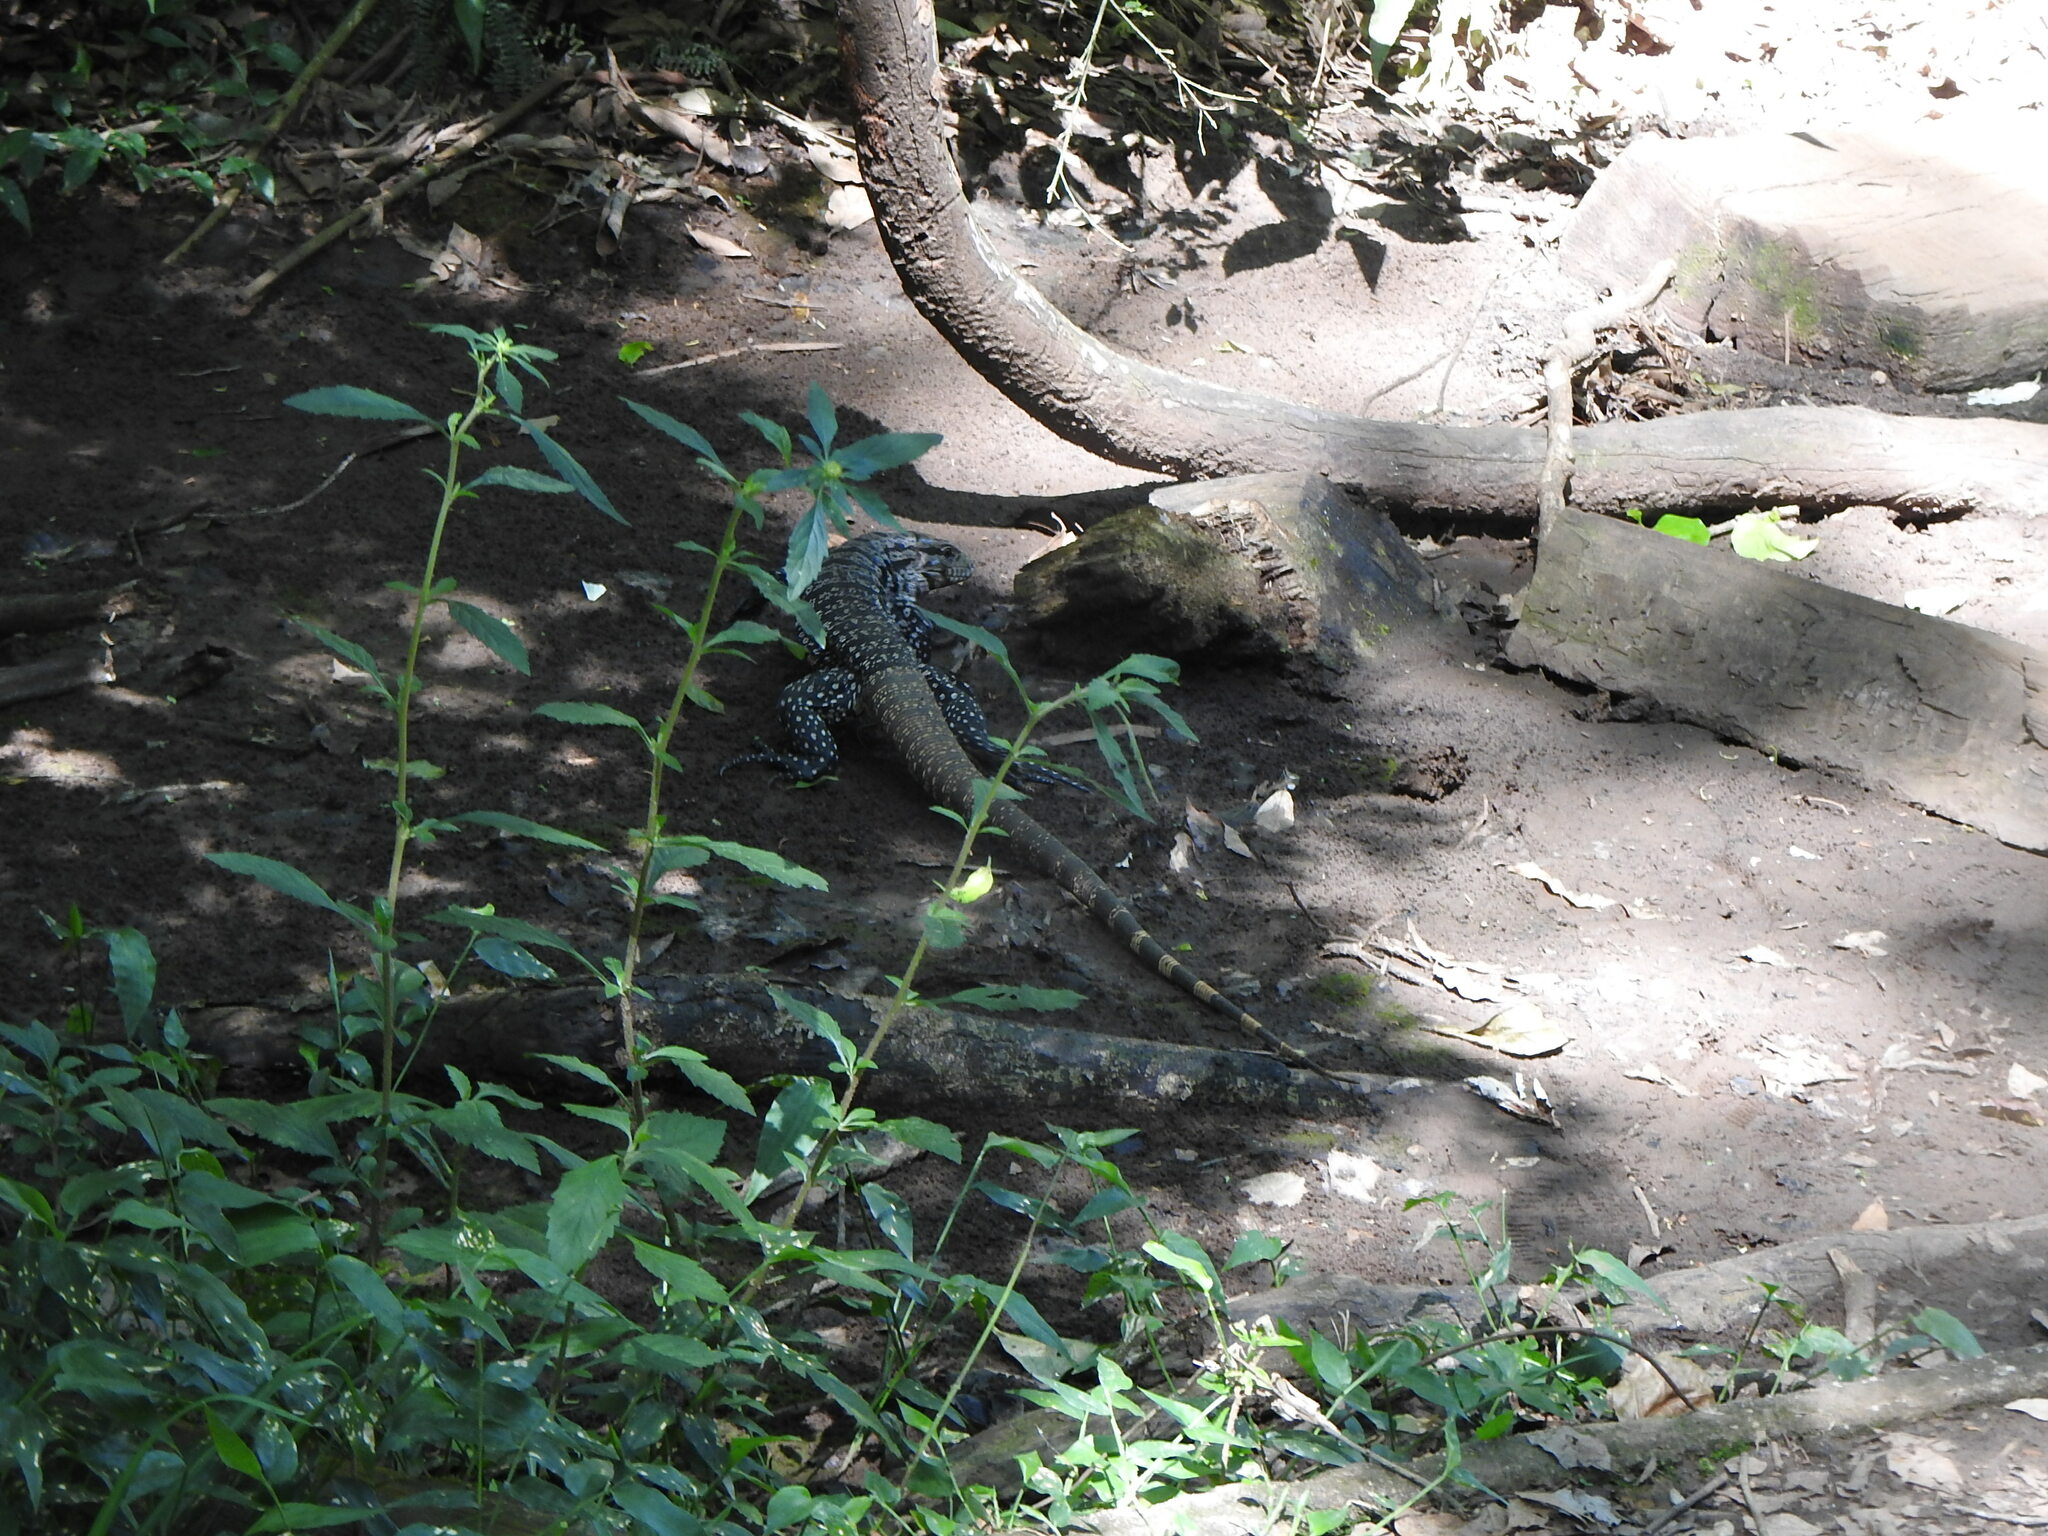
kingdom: Animalia
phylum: Chordata
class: Squamata
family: Teiidae
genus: Salvator
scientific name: Salvator merianae
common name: Argentine black and white tegu
